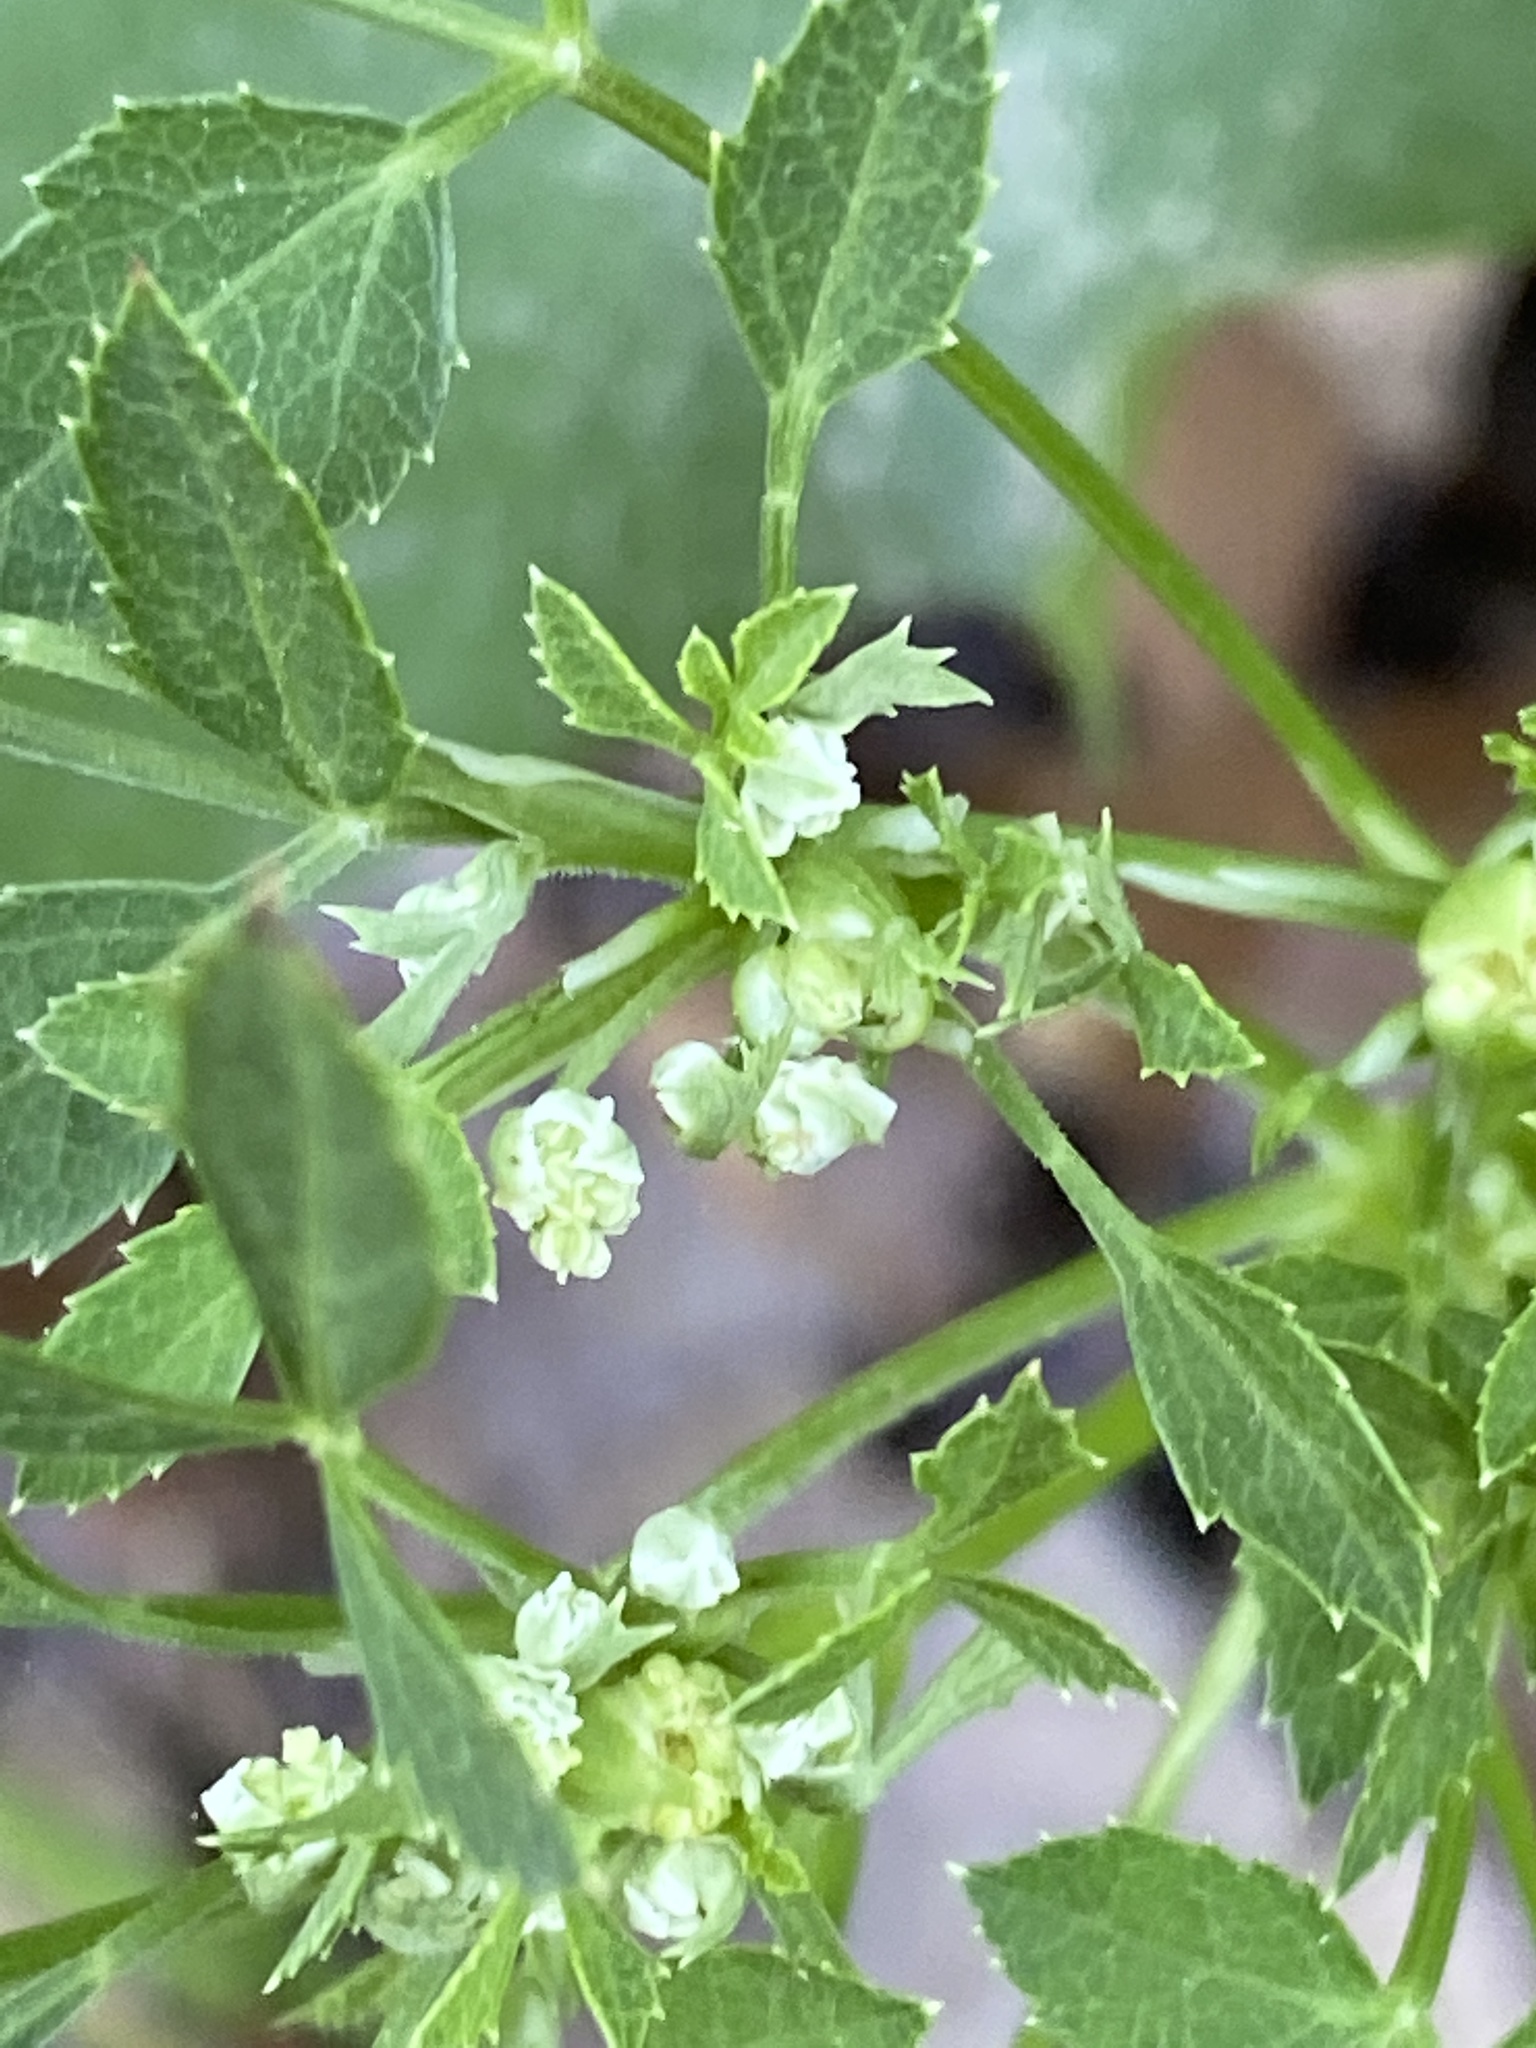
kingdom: Plantae
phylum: Tracheophyta
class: Magnoliopsida
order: Apiales
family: Apiaceae
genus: Angelica
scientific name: Angelica venenosa
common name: Hairy angelica
